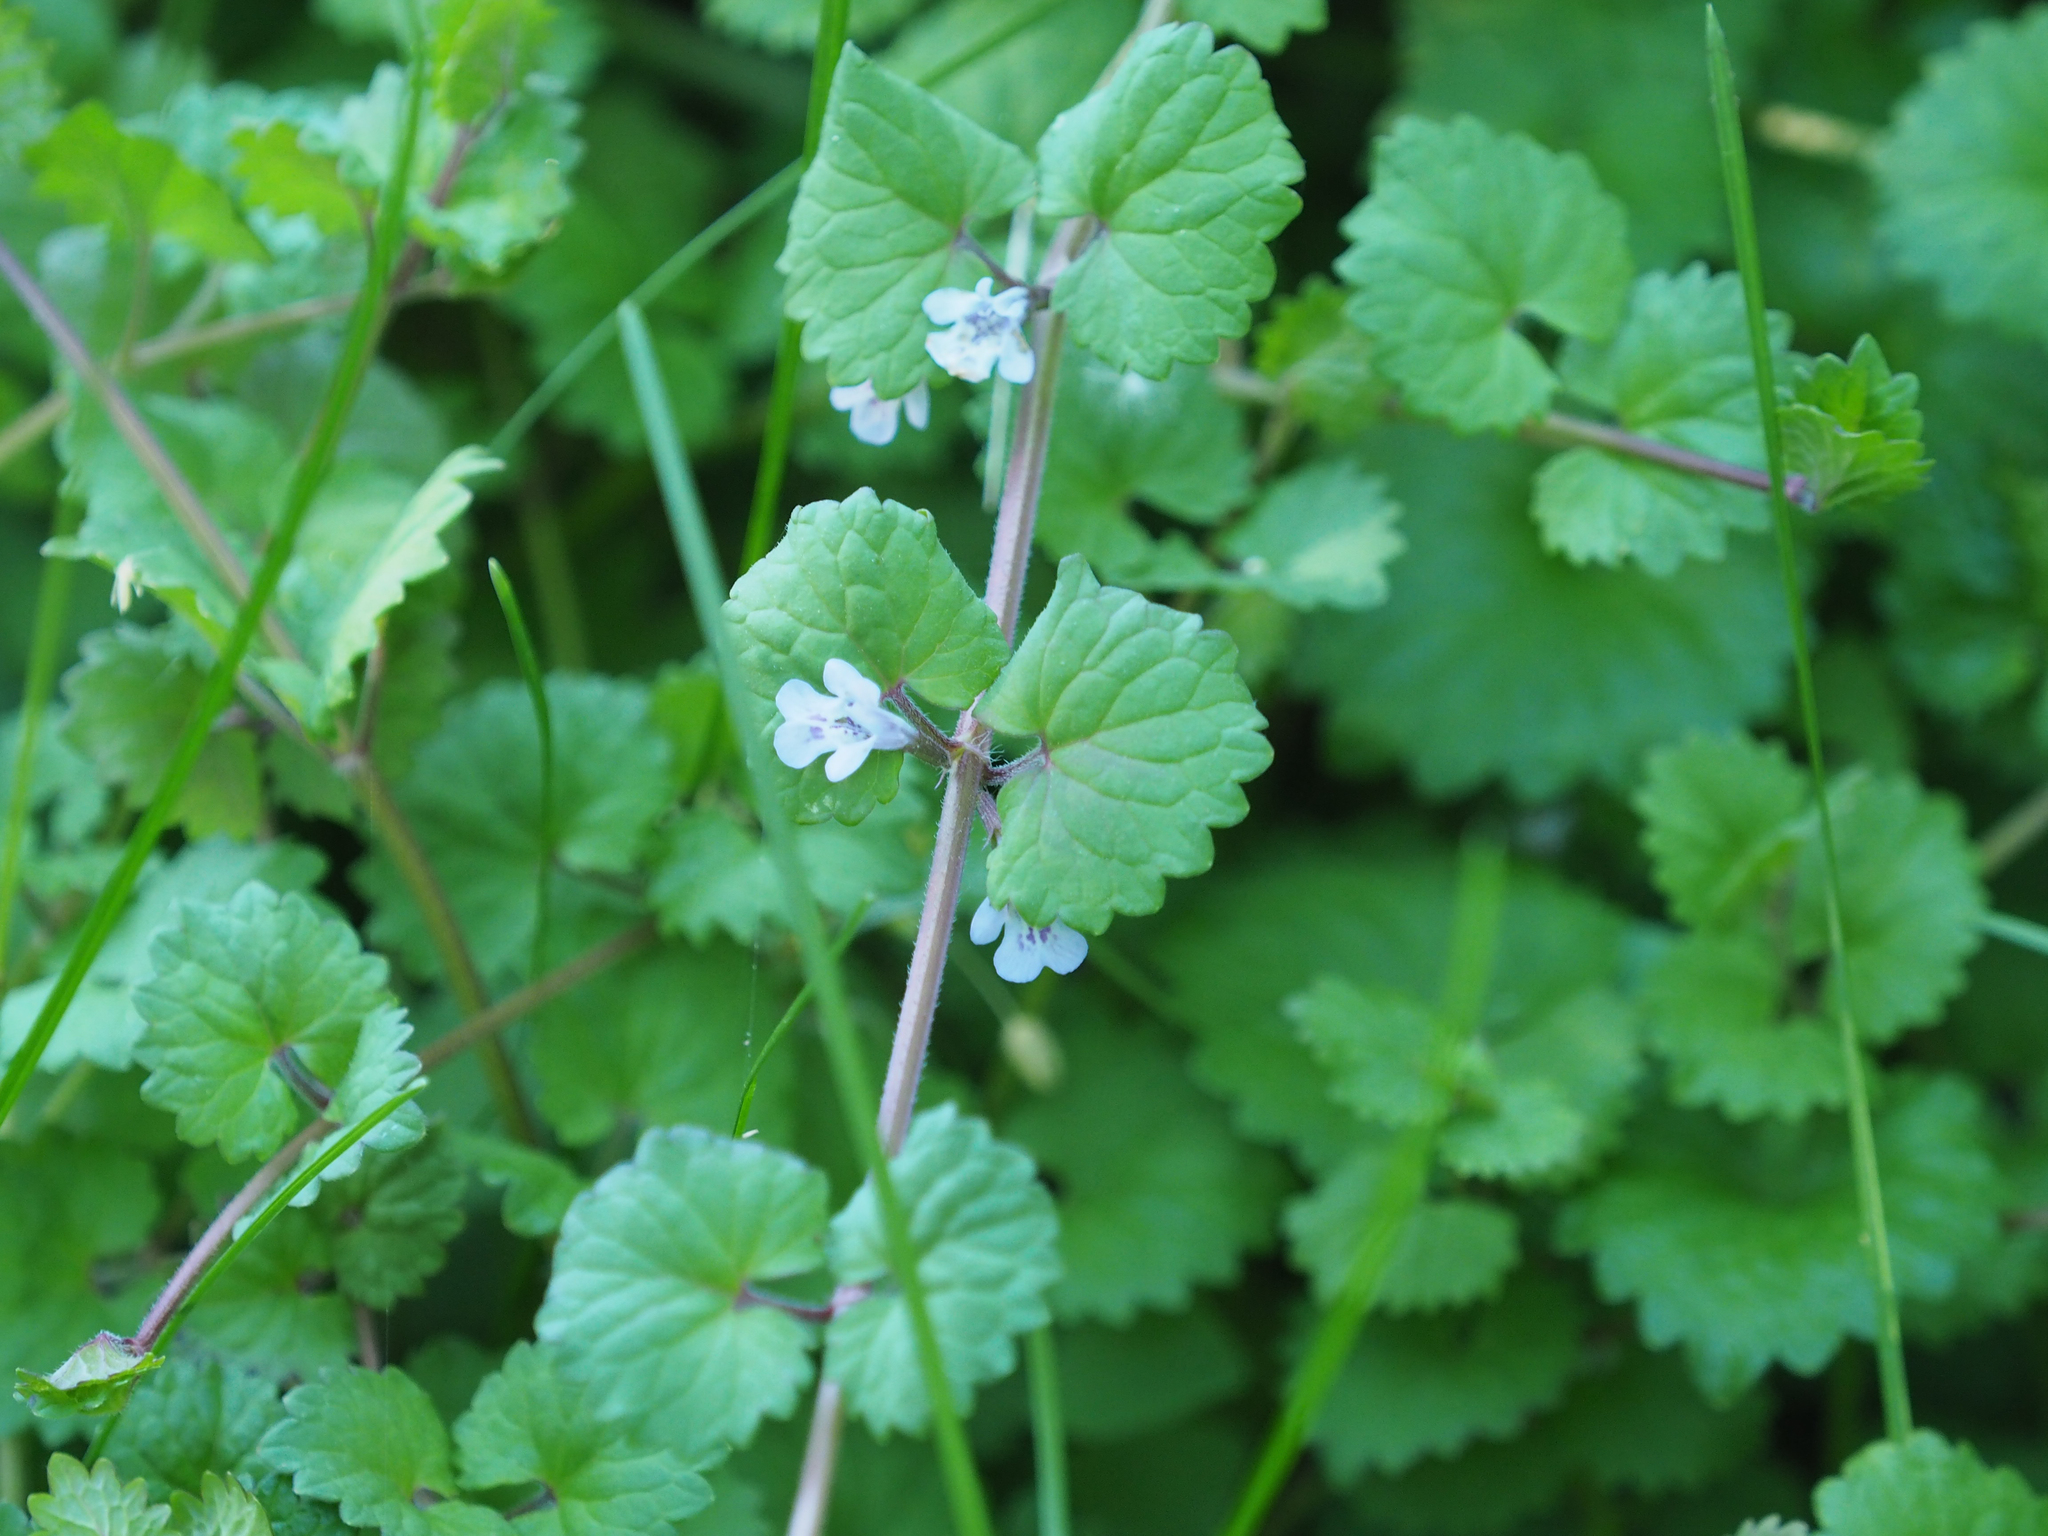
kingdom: Plantae
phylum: Tracheophyta
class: Magnoliopsida
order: Lamiales
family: Lamiaceae
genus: Glechoma
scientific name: Glechoma hederacea
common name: Ground ivy
